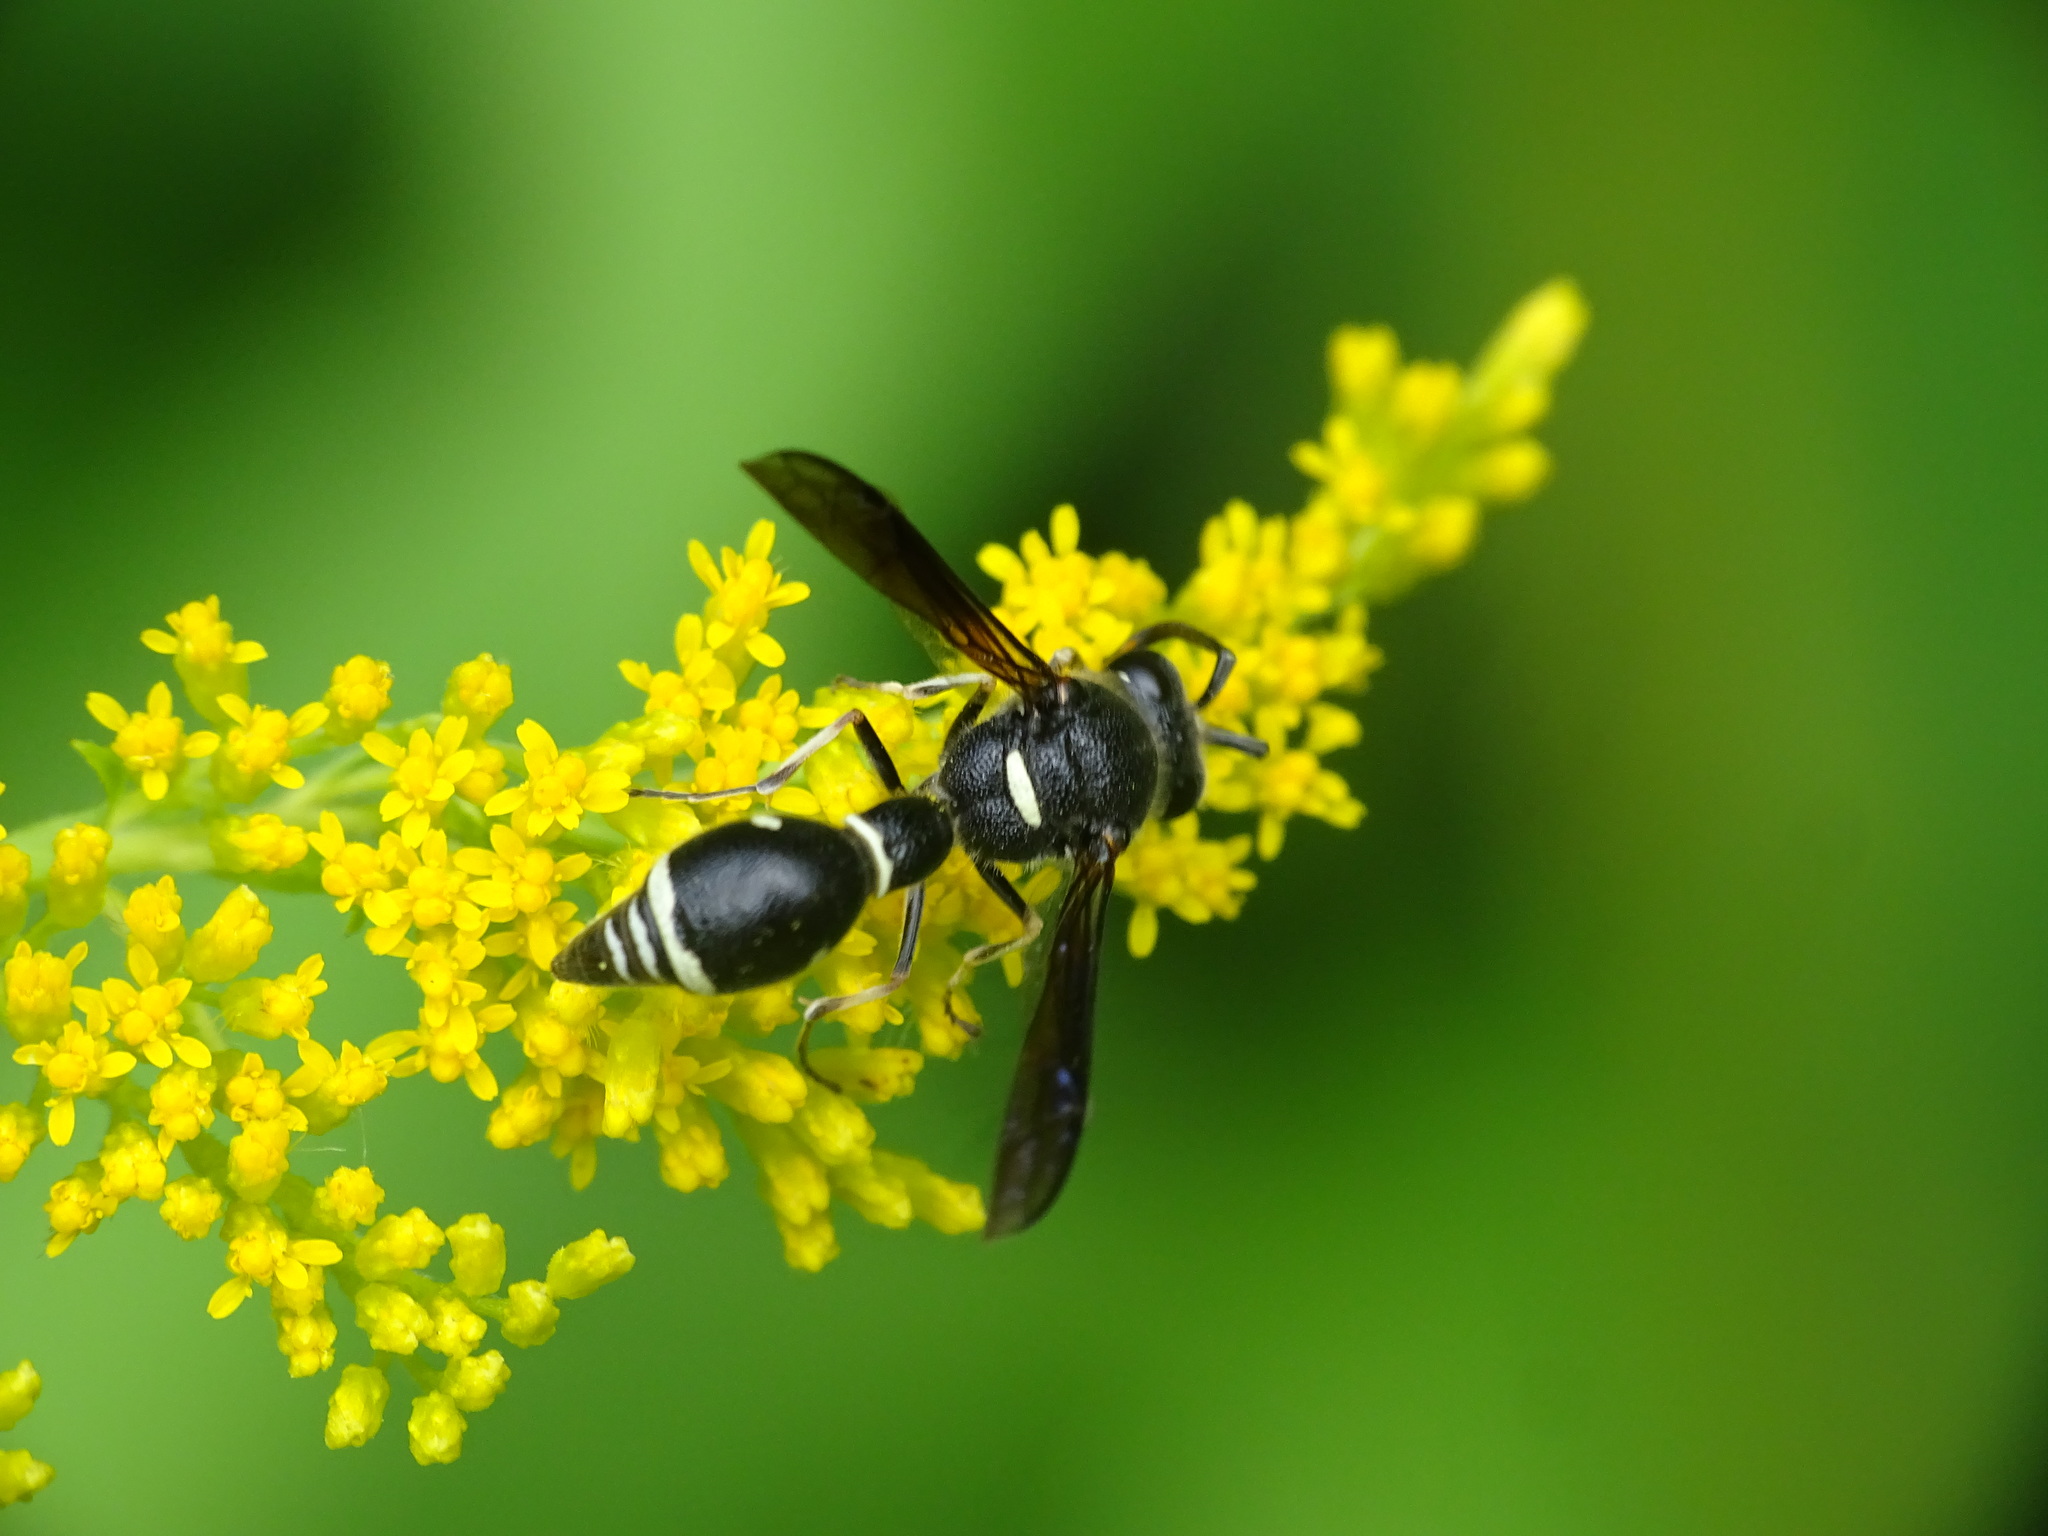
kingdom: Animalia
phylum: Arthropoda
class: Insecta
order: Hymenoptera
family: Vespidae
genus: Eumenes
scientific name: Eumenes fraternus
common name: Fraternal potter wasp
